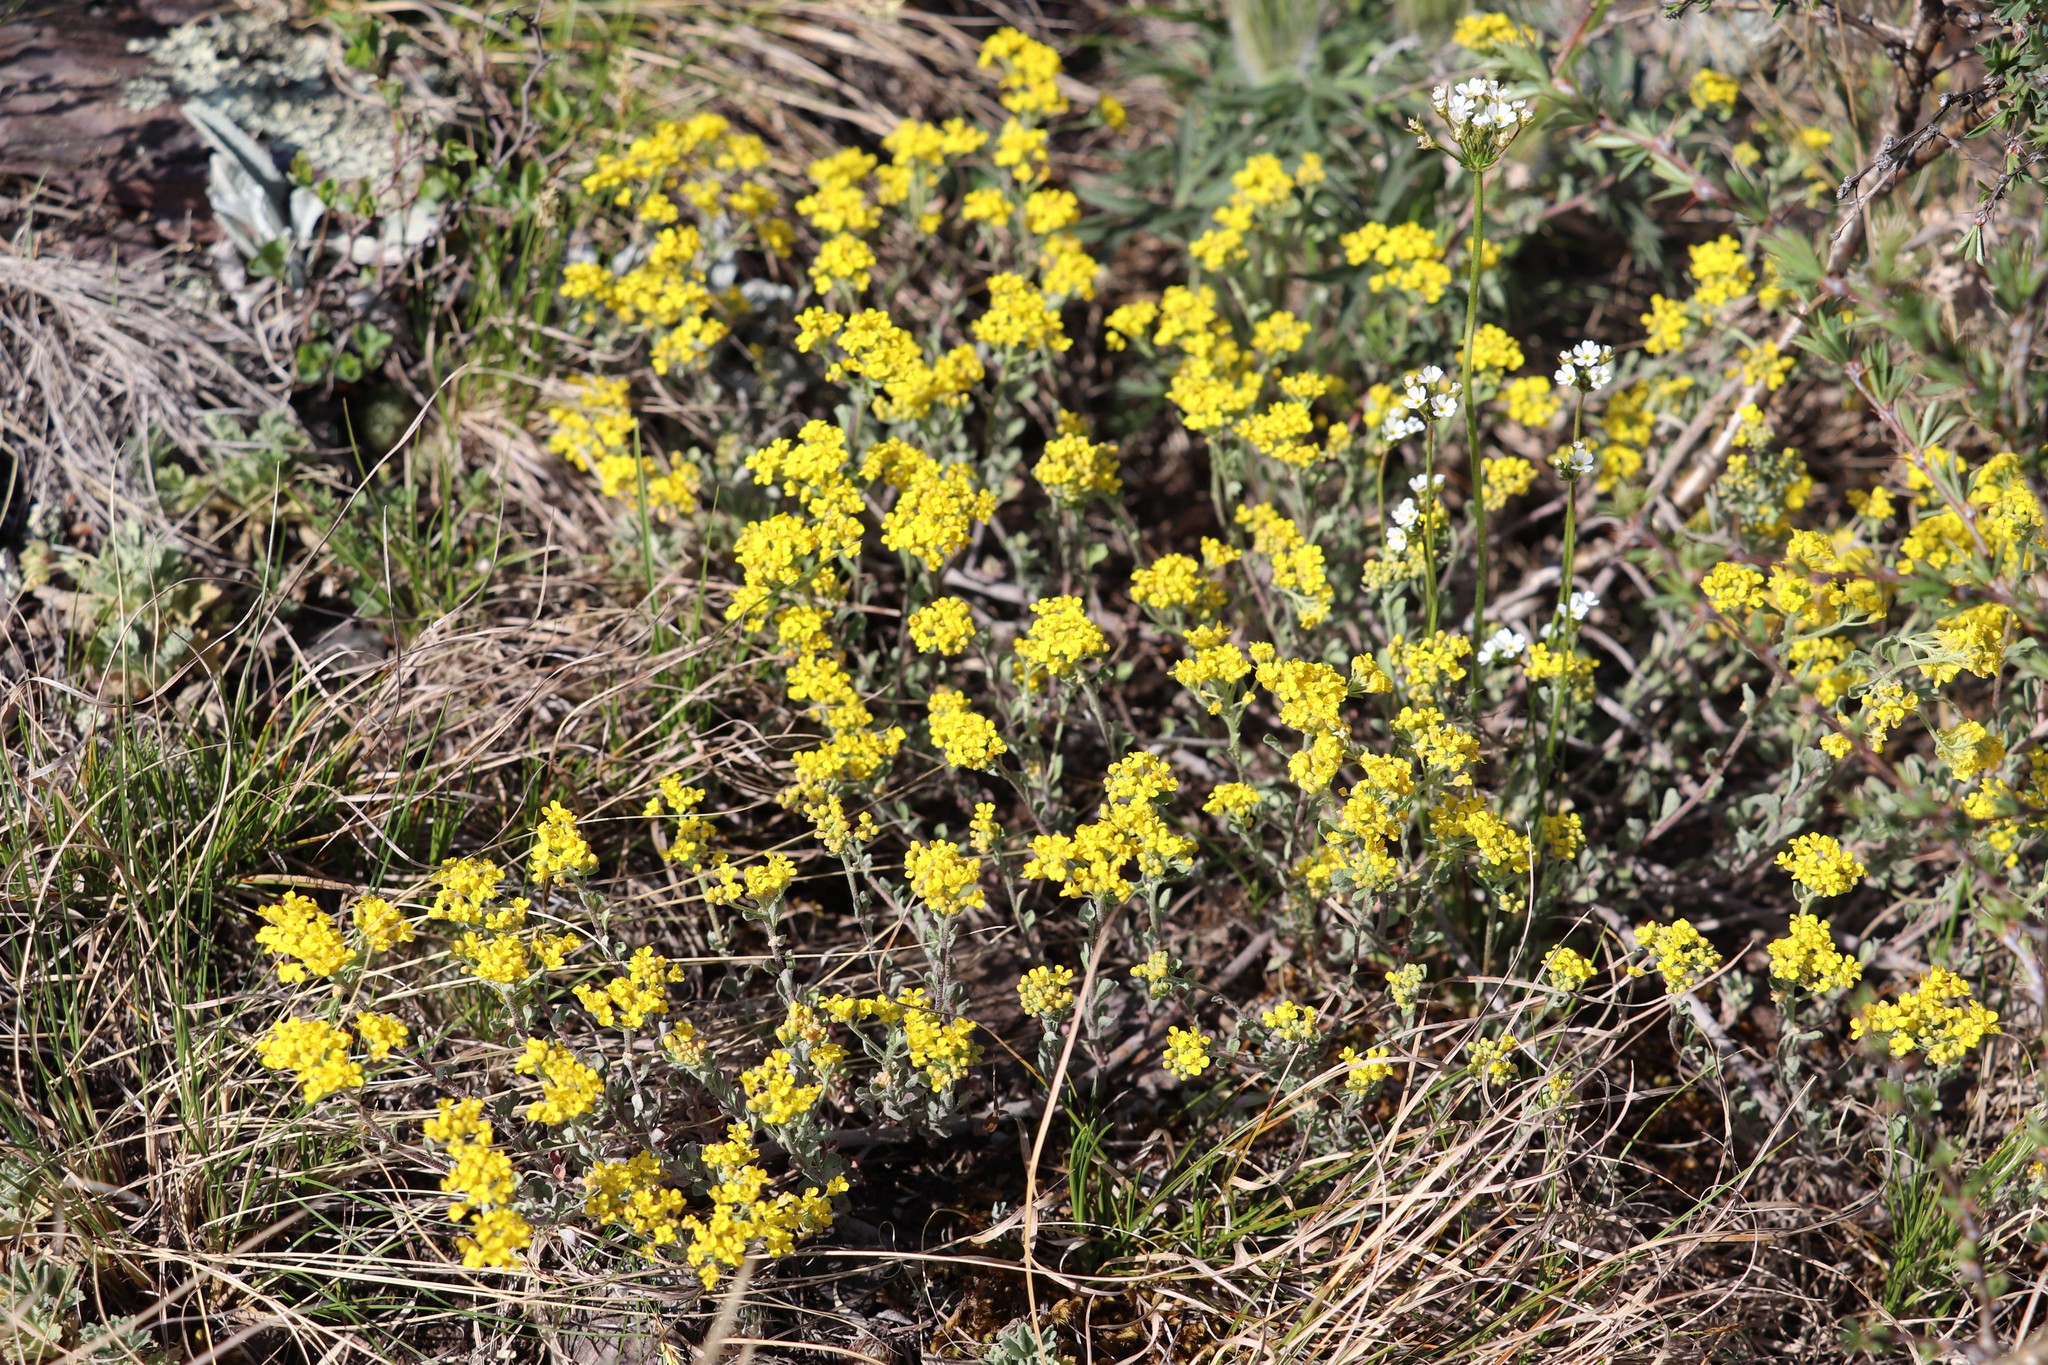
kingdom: Plantae
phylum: Tracheophyta
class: Magnoliopsida
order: Brassicales
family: Brassicaceae
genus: Odontarrhena
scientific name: Odontarrhena obovata
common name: American alyssum
